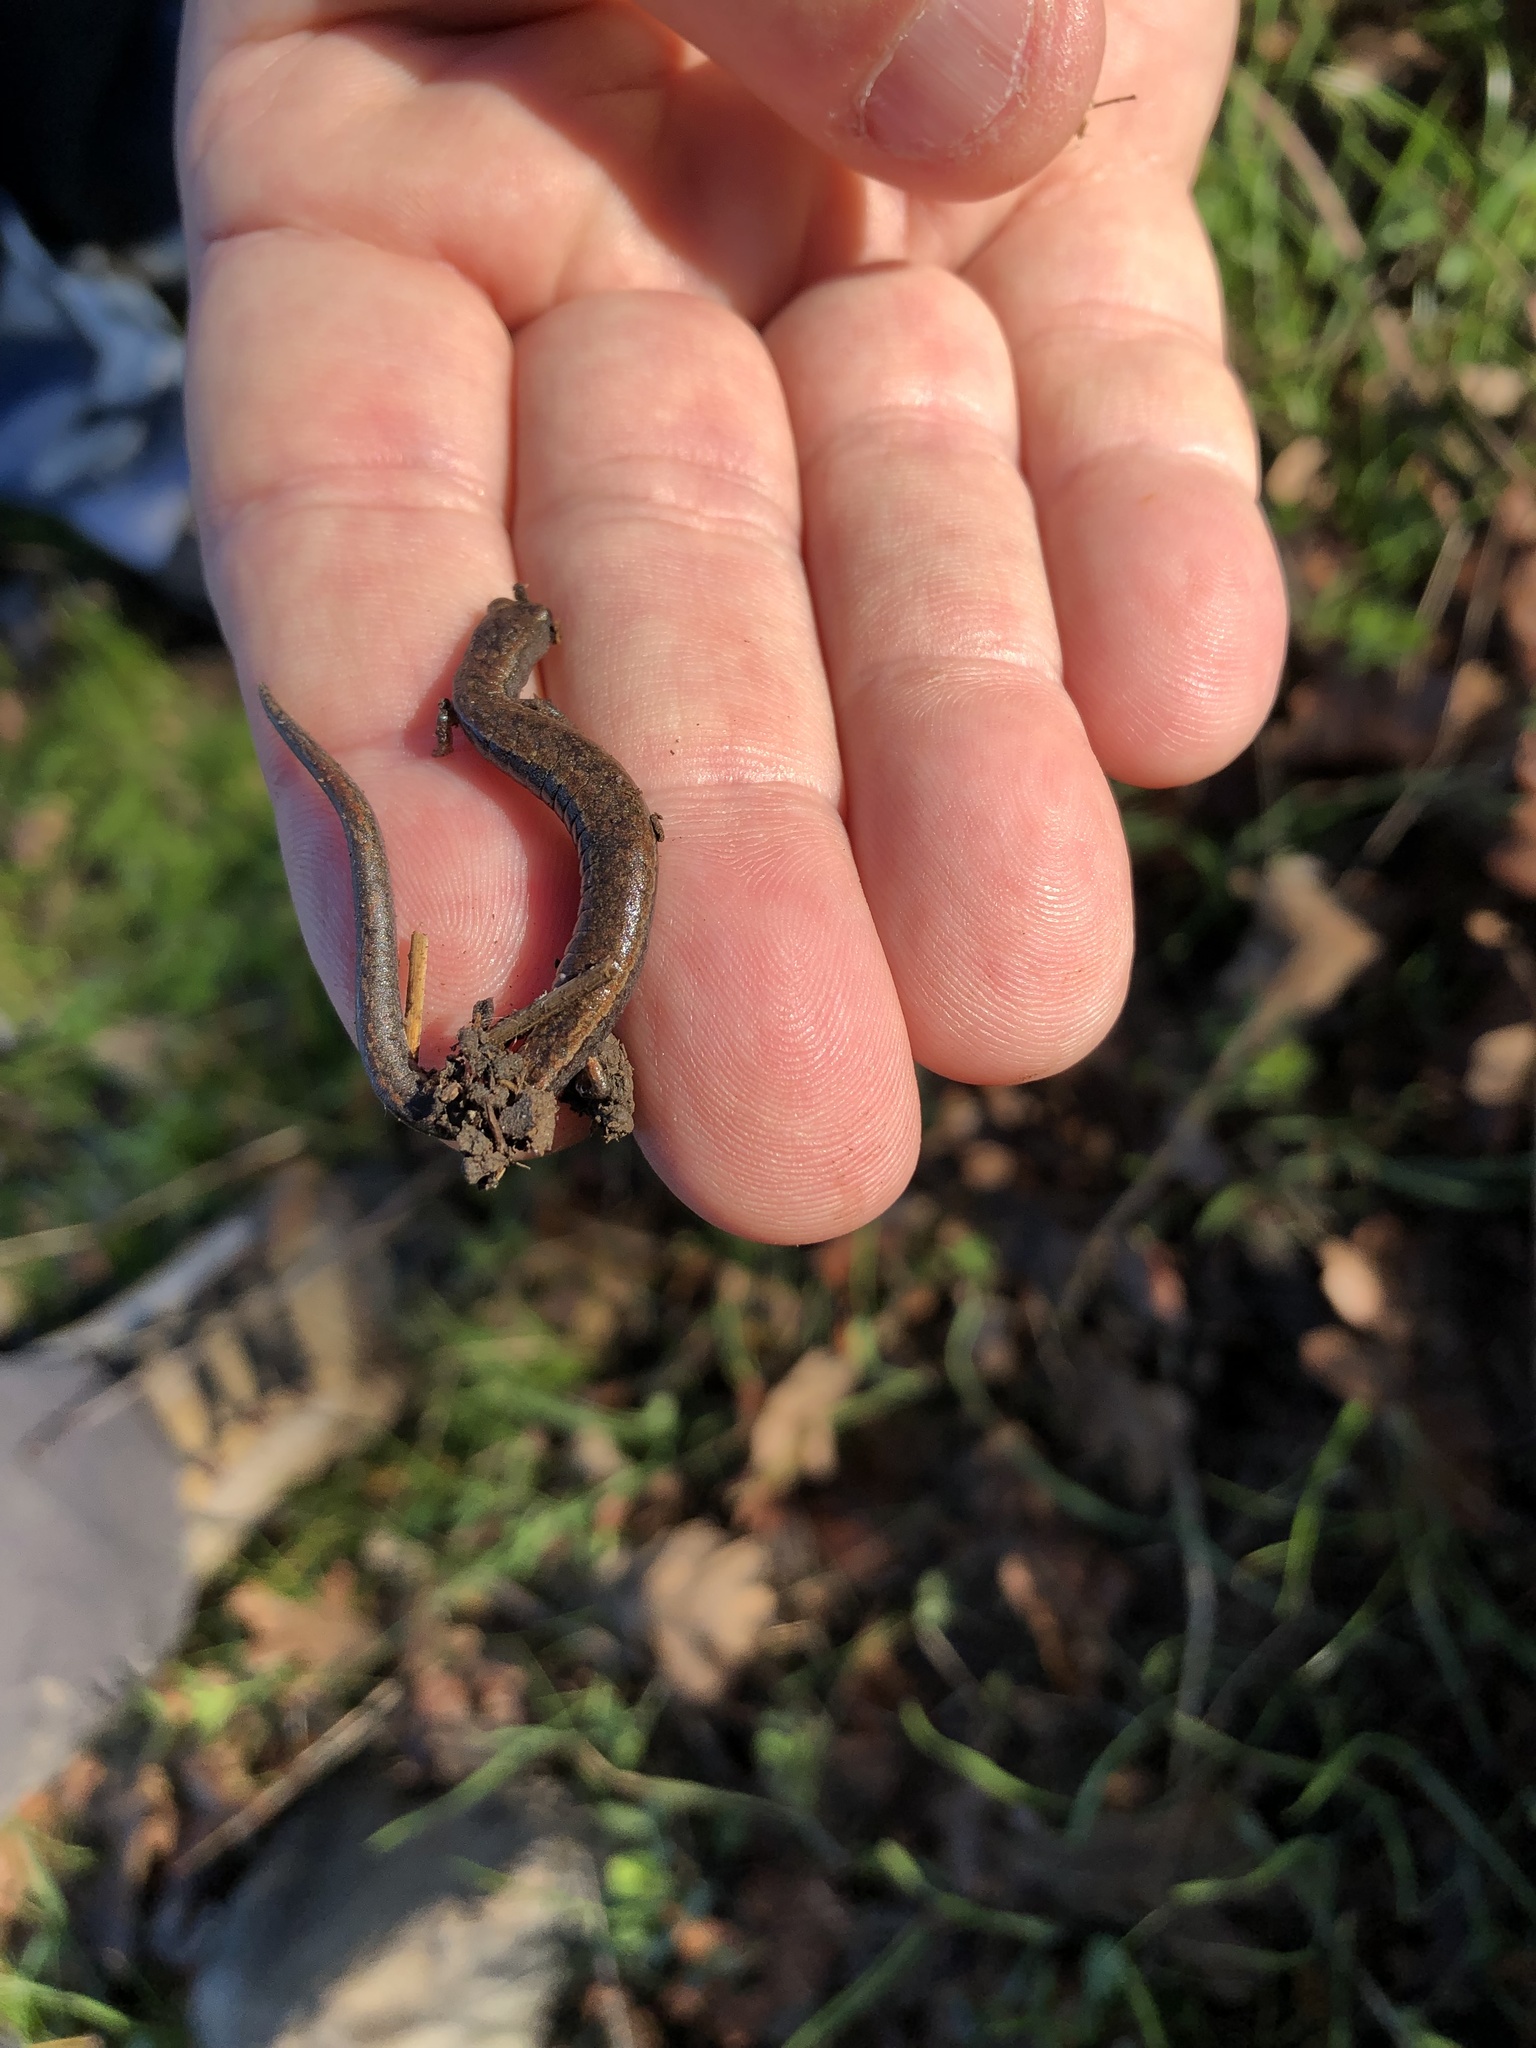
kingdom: Animalia
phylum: Chordata
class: Amphibia
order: Caudata
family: Plethodontidae
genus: Batrachoseps
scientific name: Batrachoseps attenuatus
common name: California slender salamander
